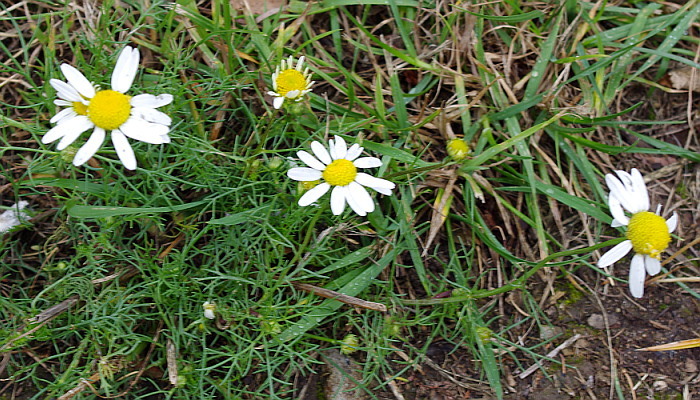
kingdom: Plantae
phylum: Tracheophyta
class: Magnoliopsida
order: Asterales
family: Asteraceae
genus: Tripleurospermum
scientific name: Tripleurospermum inodorum
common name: Scentless mayweed
